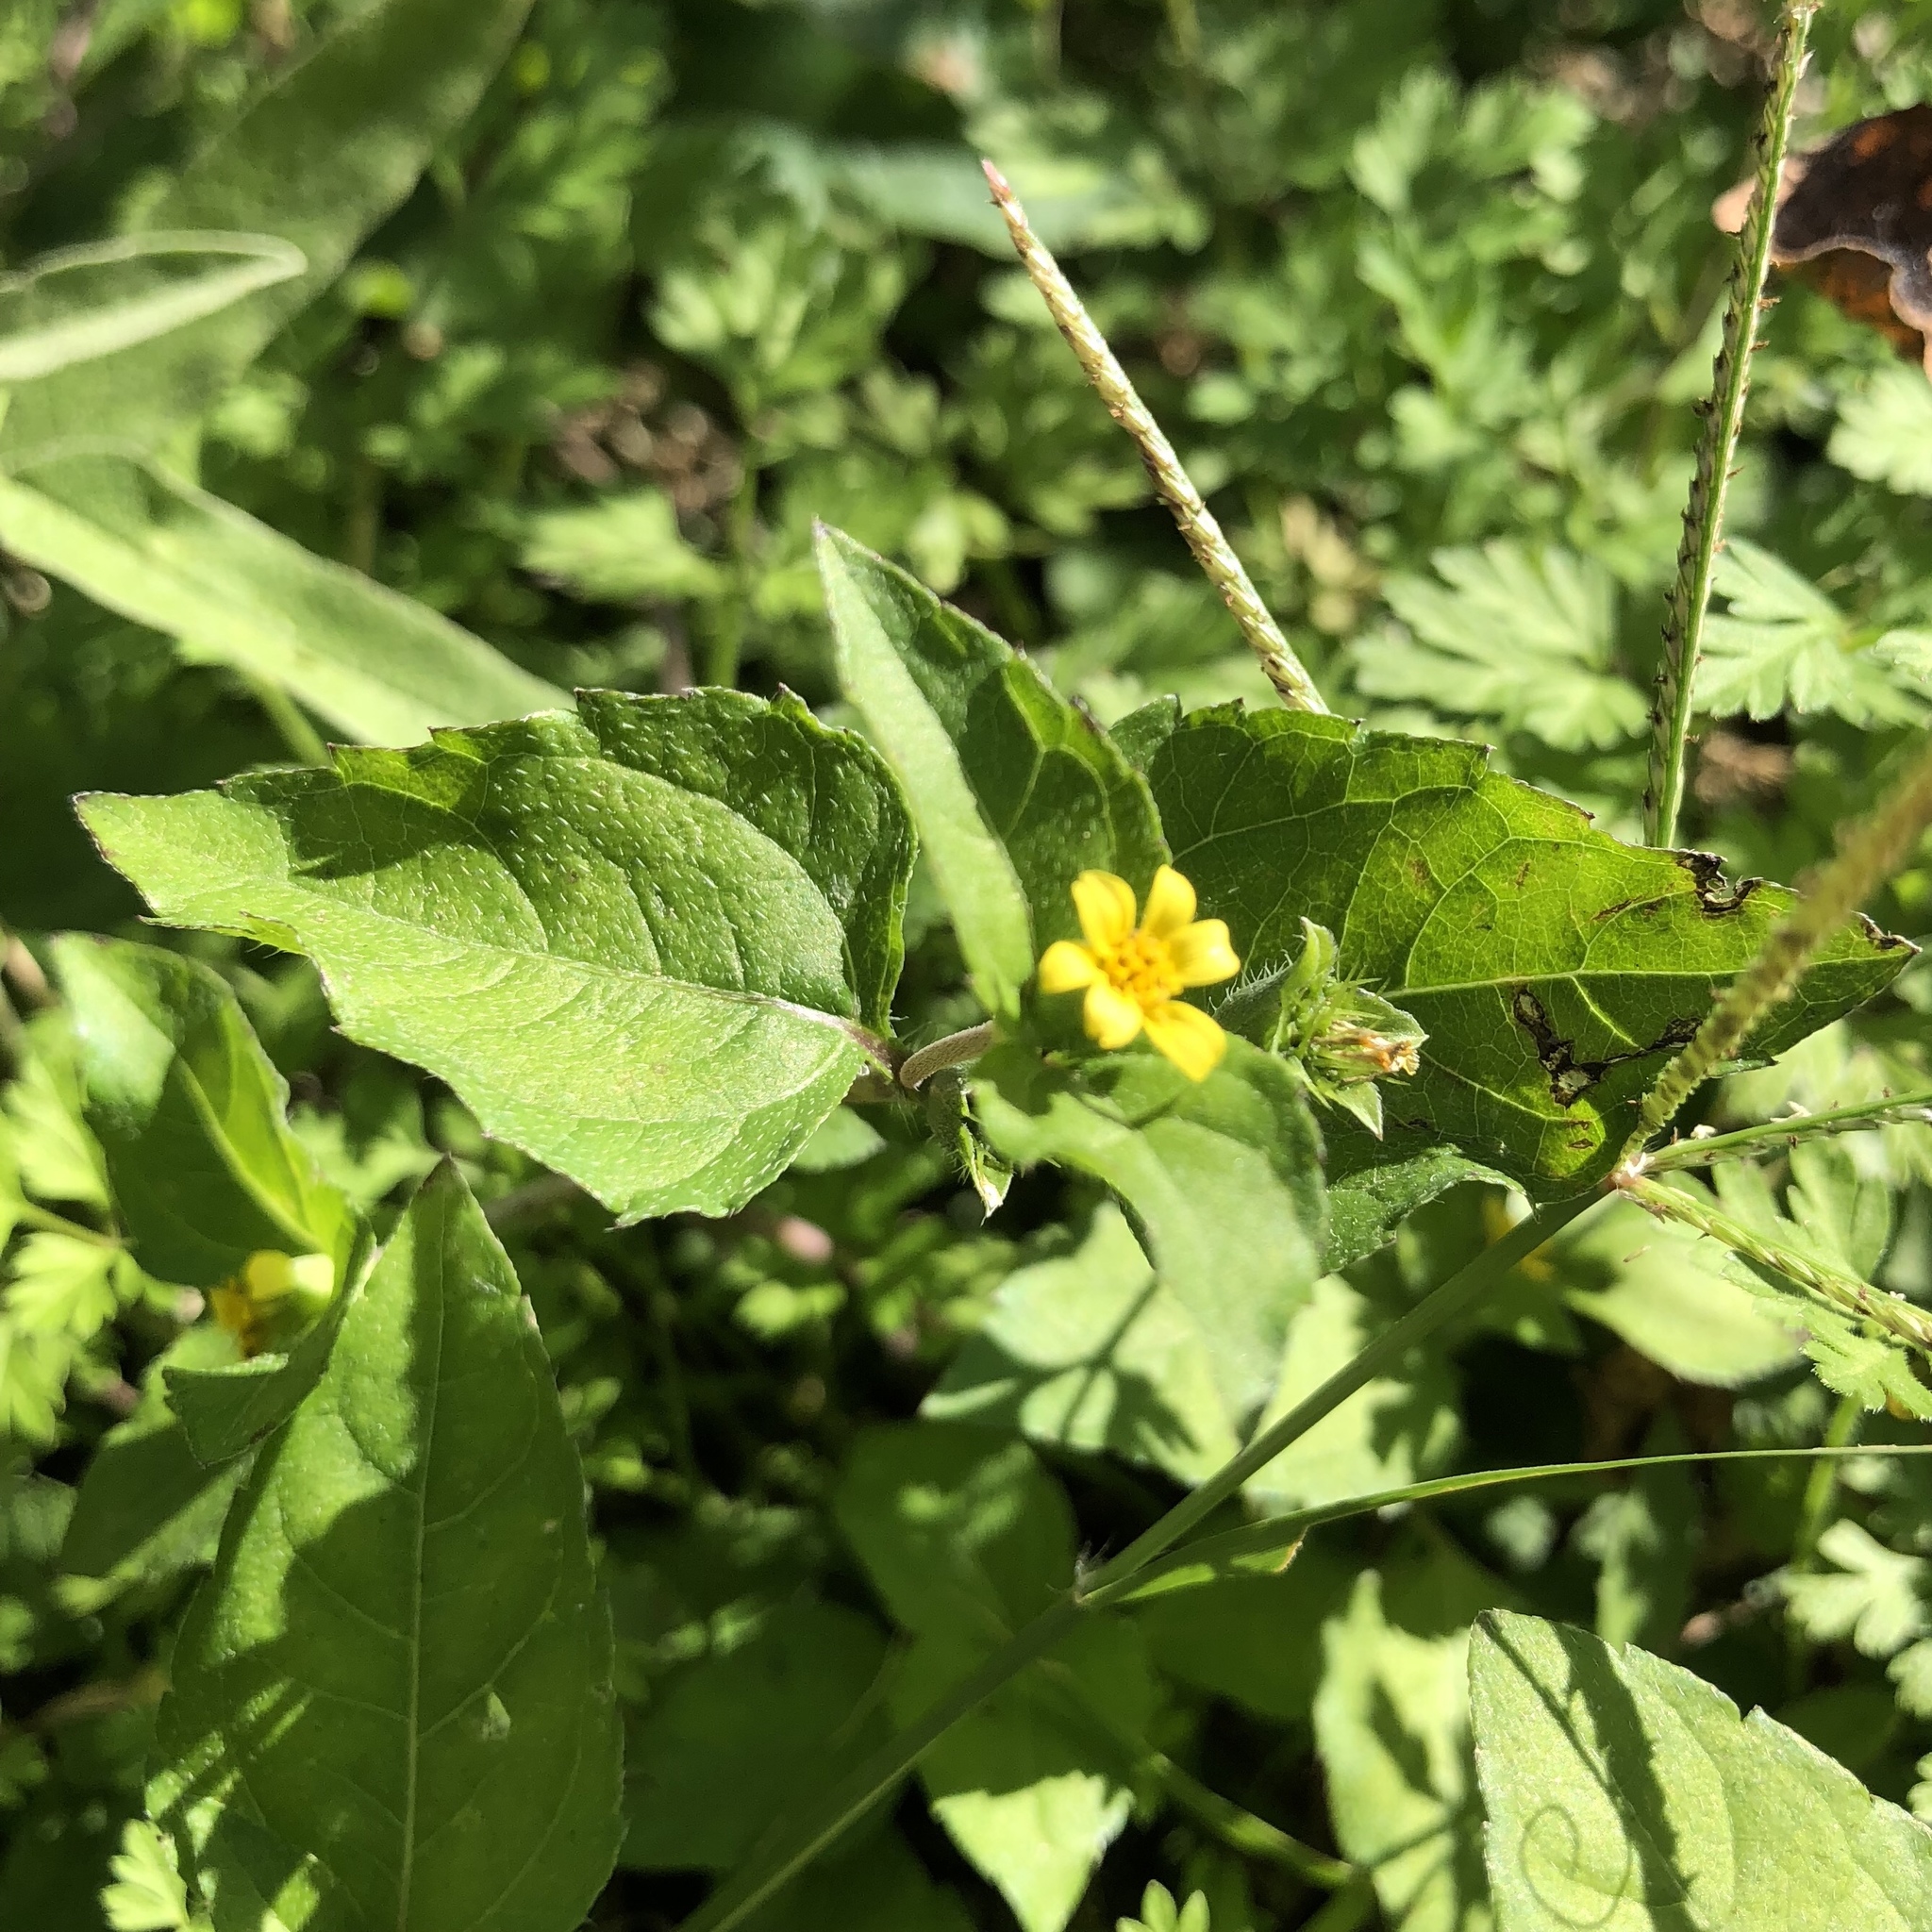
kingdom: Plantae
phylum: Tracheophyta
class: Magnoliopsida
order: Asterales
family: Asteraceae
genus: Calyptocarpus
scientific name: Calyptocarpus vialis
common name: Straggler daisy
